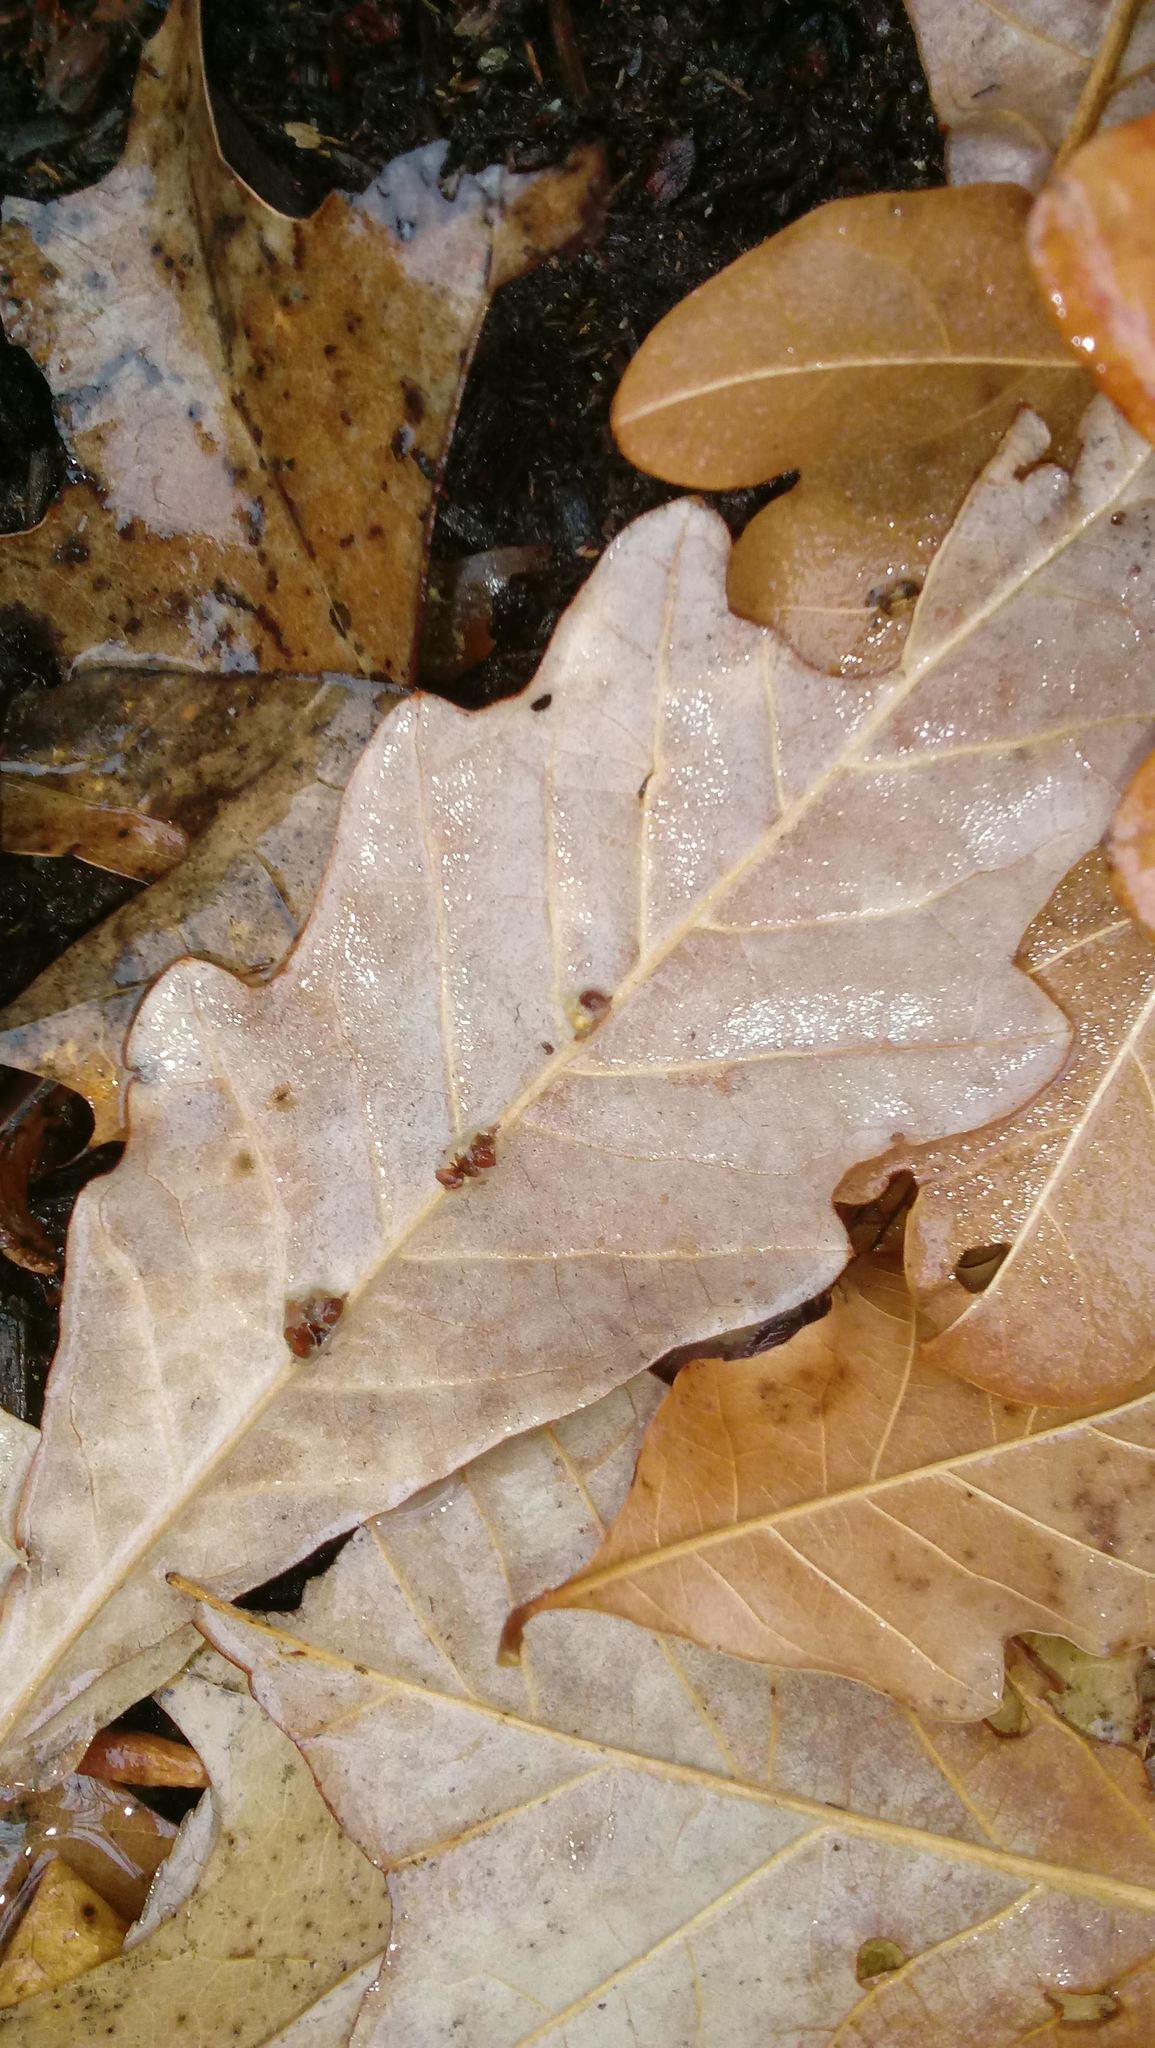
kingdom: Animalia
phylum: Arthropoda
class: Insecta
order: Hymenoptera
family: Cynipidae
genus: Andricus
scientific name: Andricus Druon ignotum
